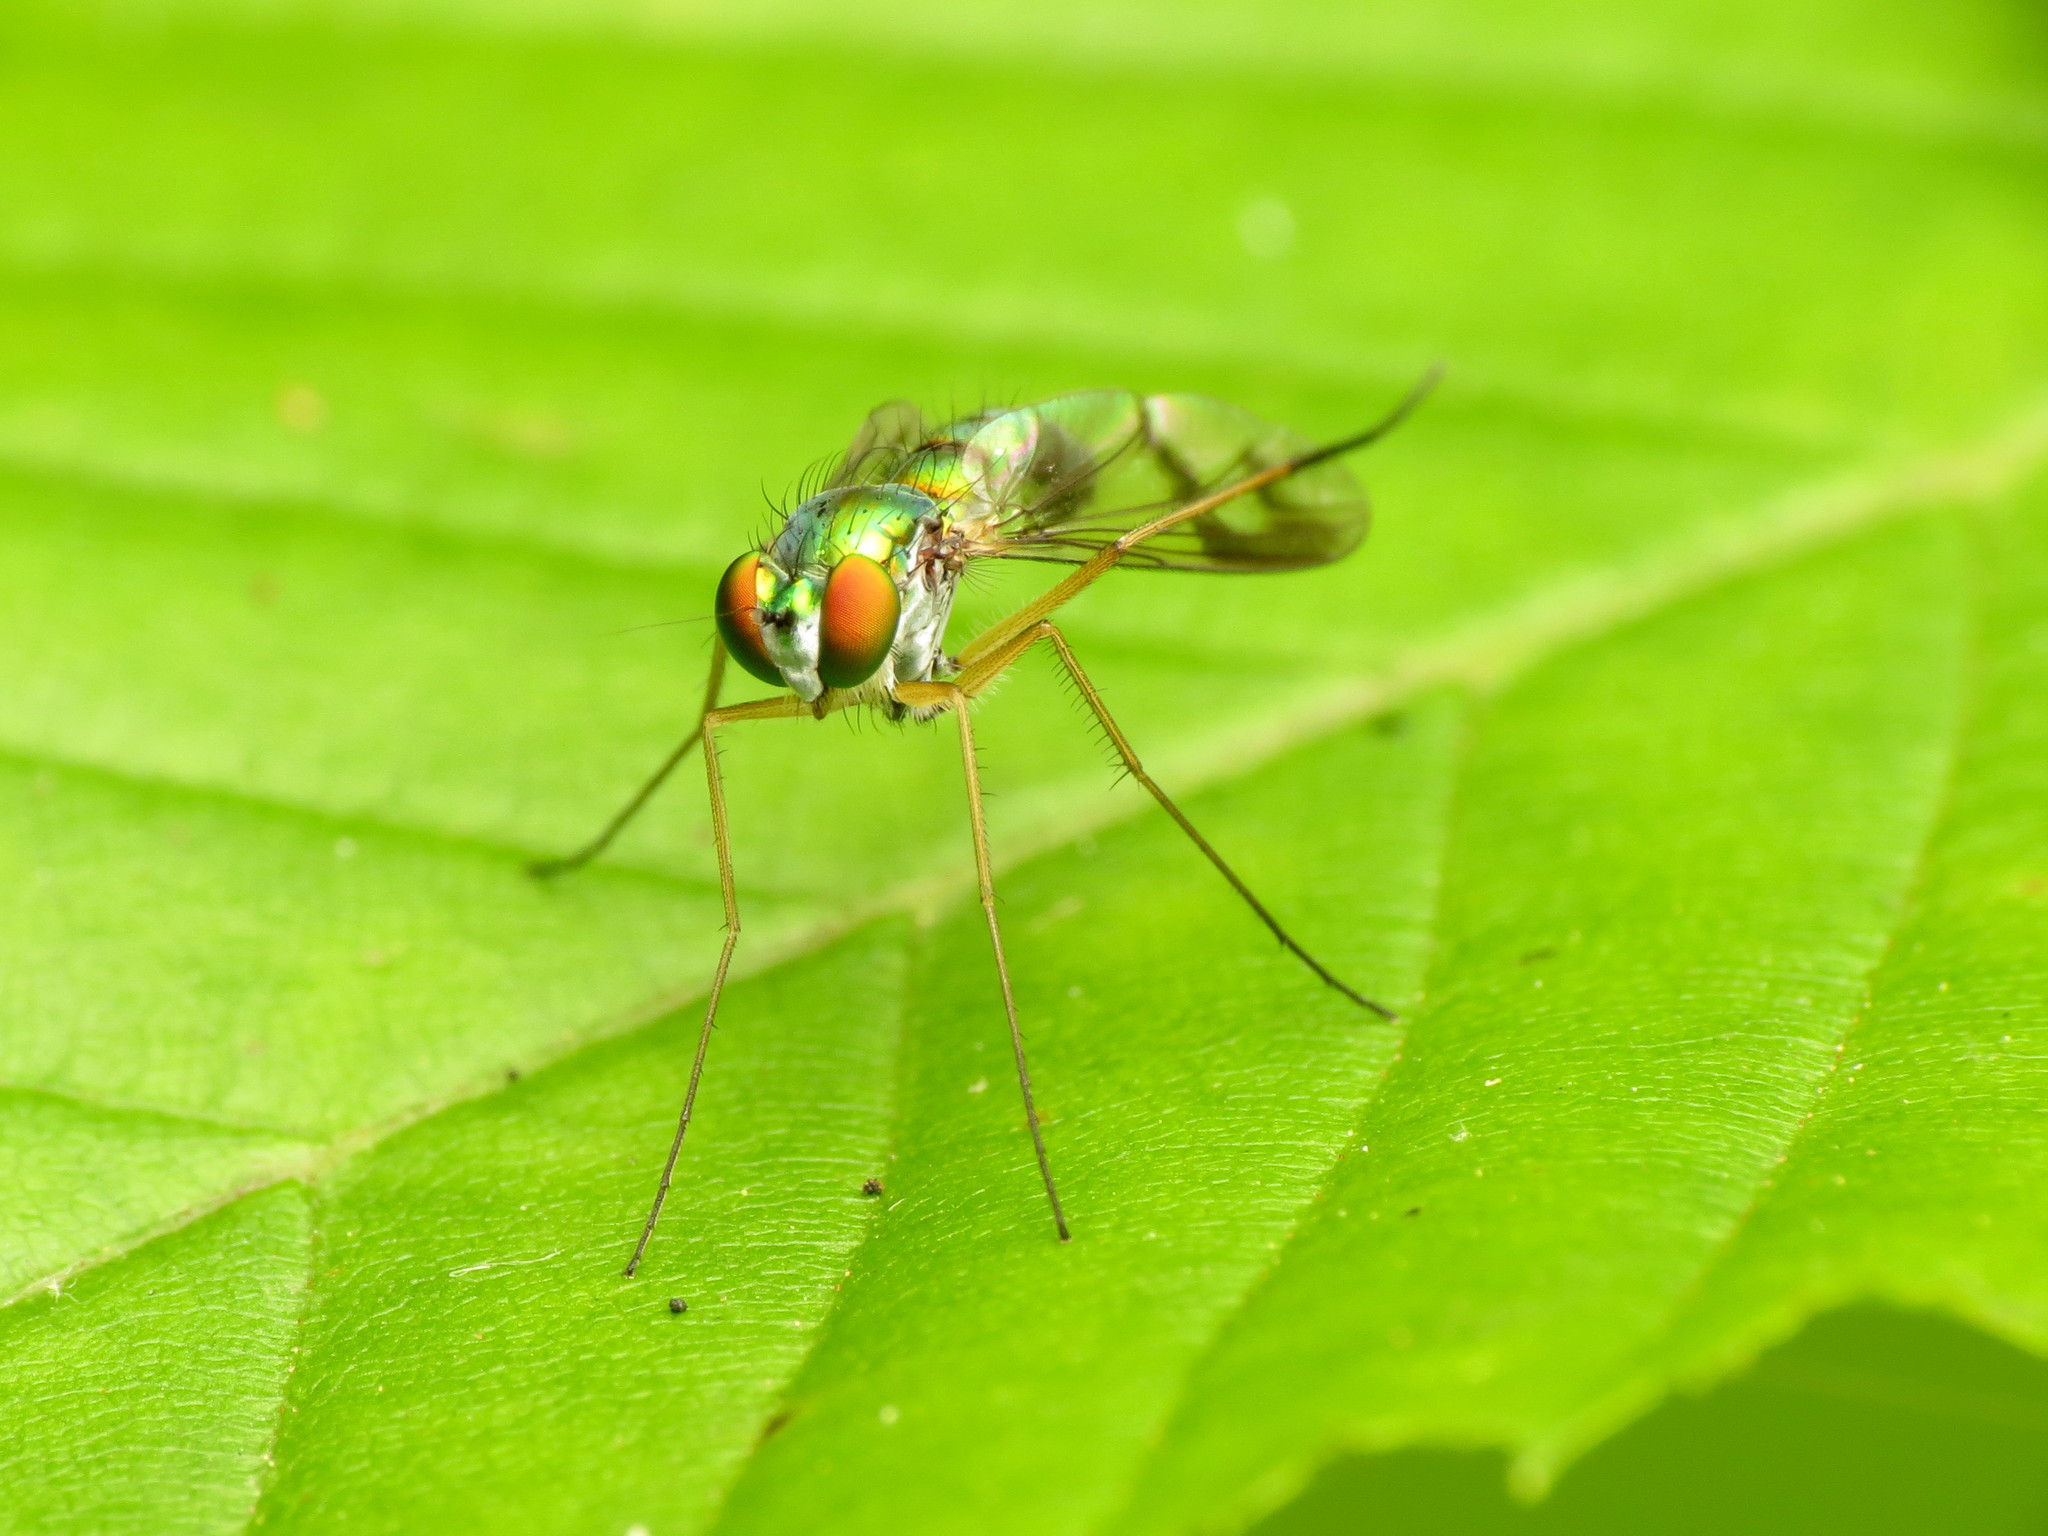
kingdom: Animalia
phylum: Arthropoda
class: Insecta
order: Diptera
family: Dolichopodidae
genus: Condylostylus
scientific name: Condylostylus sipho
